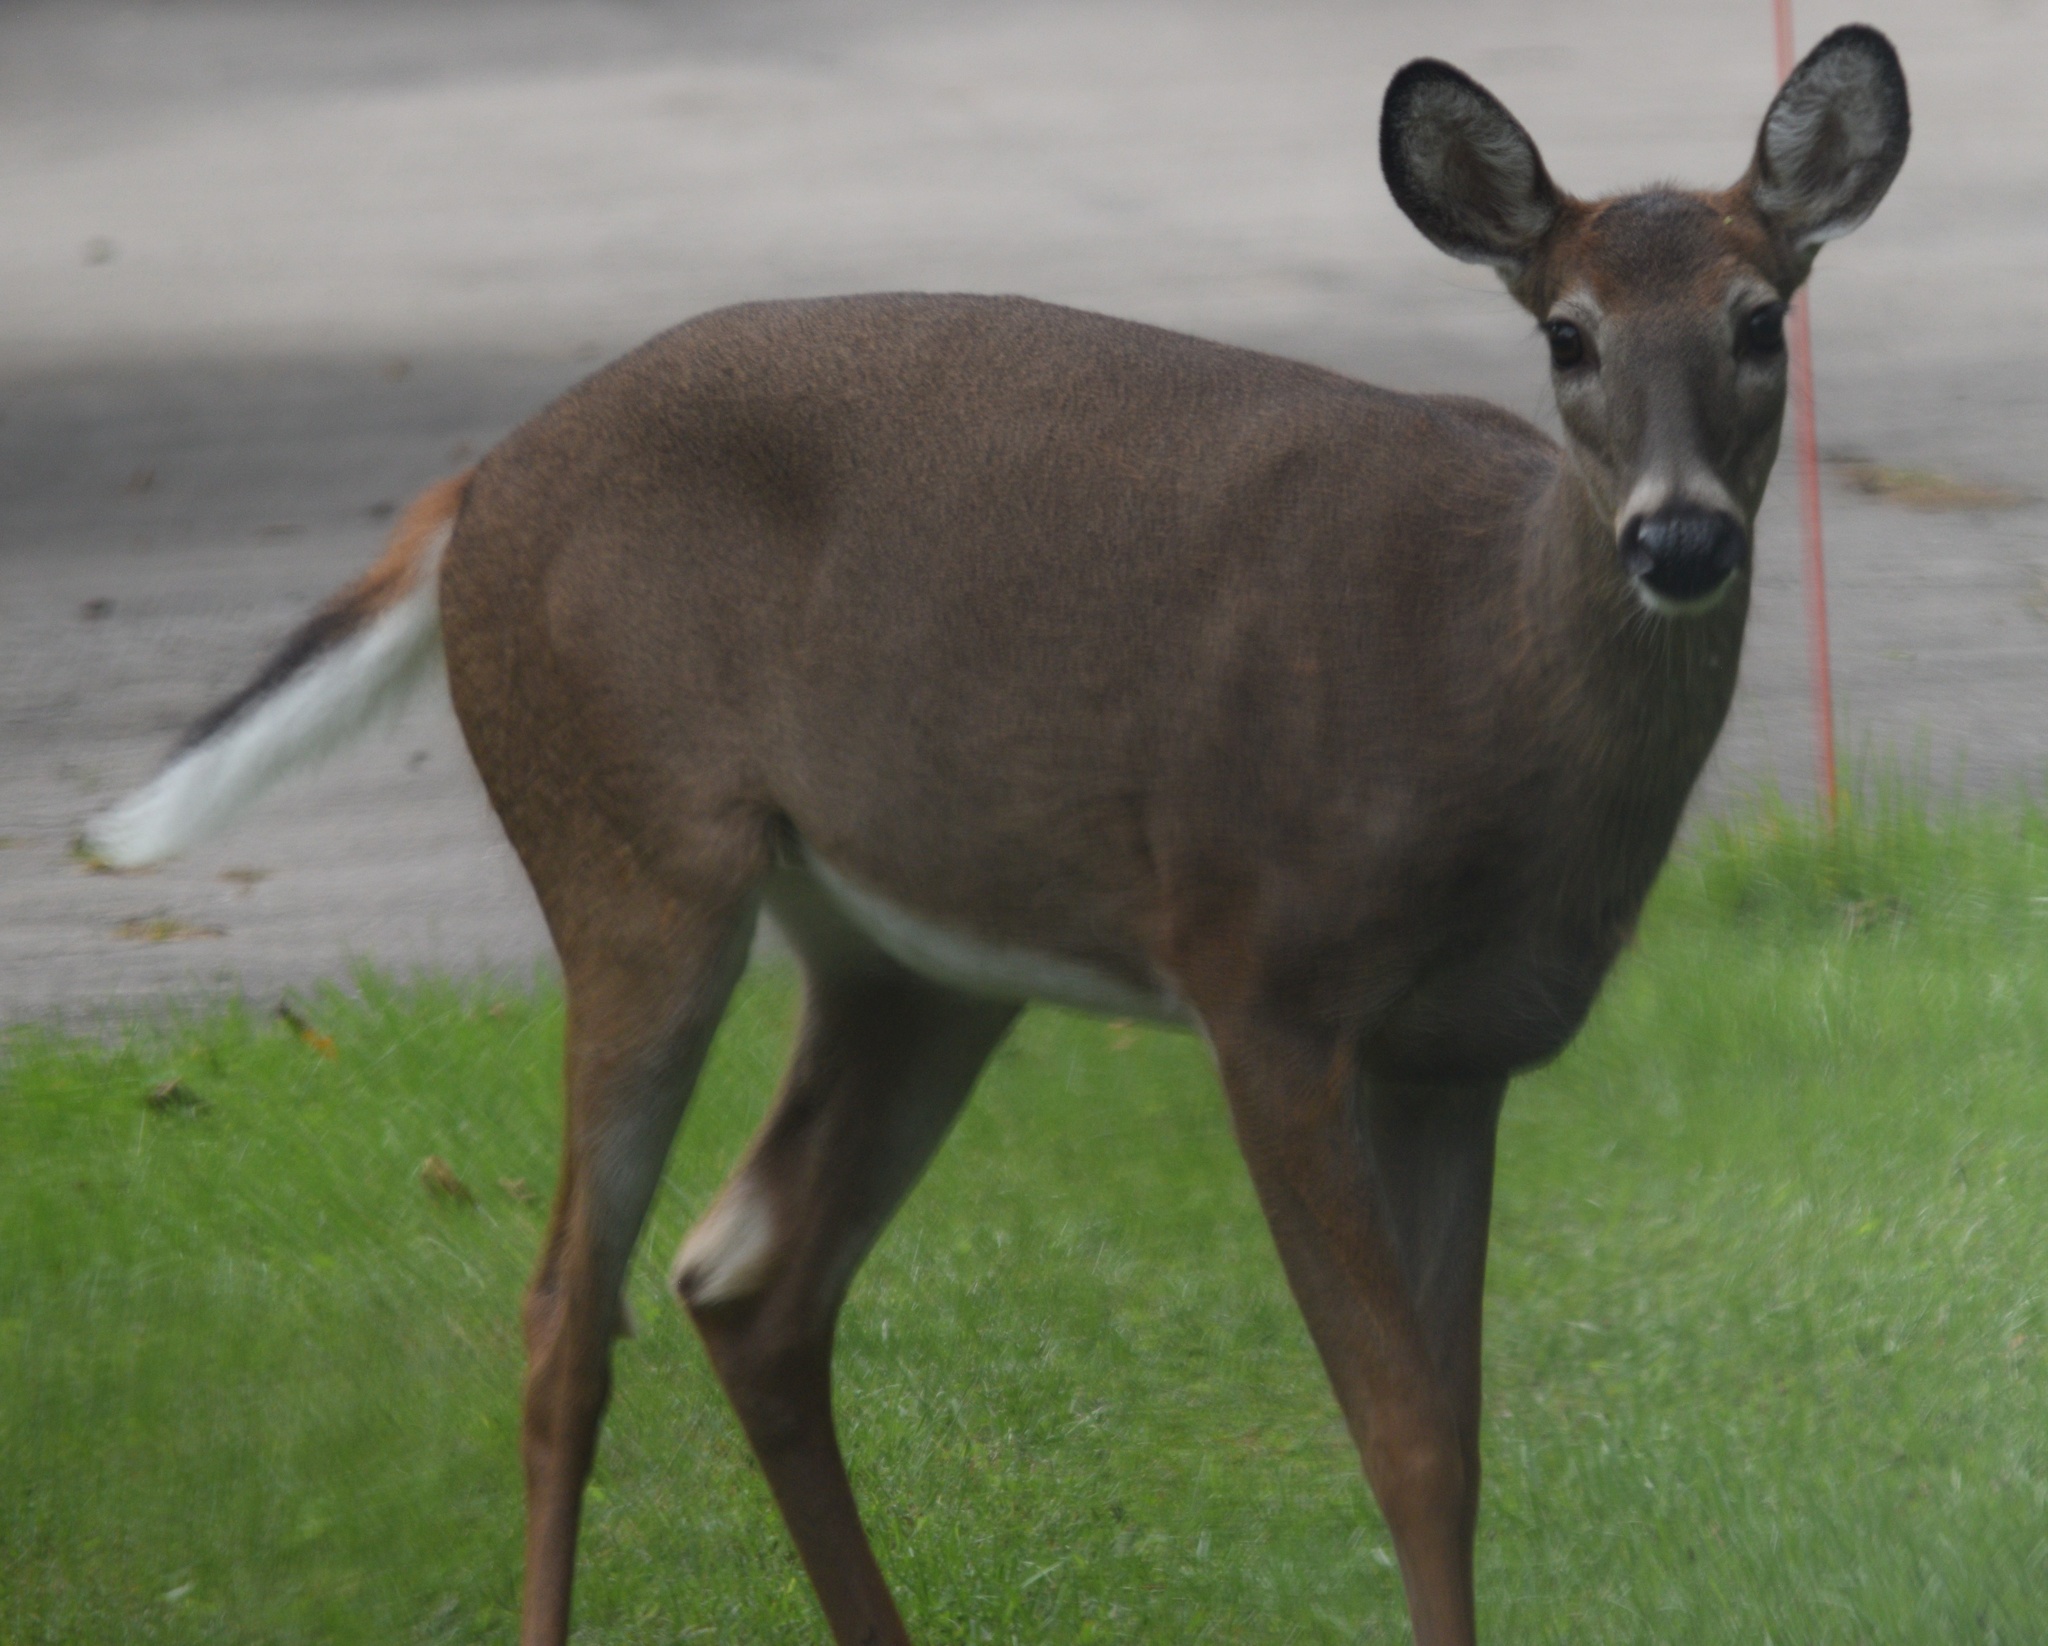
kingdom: Animalia
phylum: Chordata
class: Mammalia
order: Artiodactyla
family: Cervidae
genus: Odocoileus
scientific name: Odocoileus virginianus
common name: White-tailed deer
